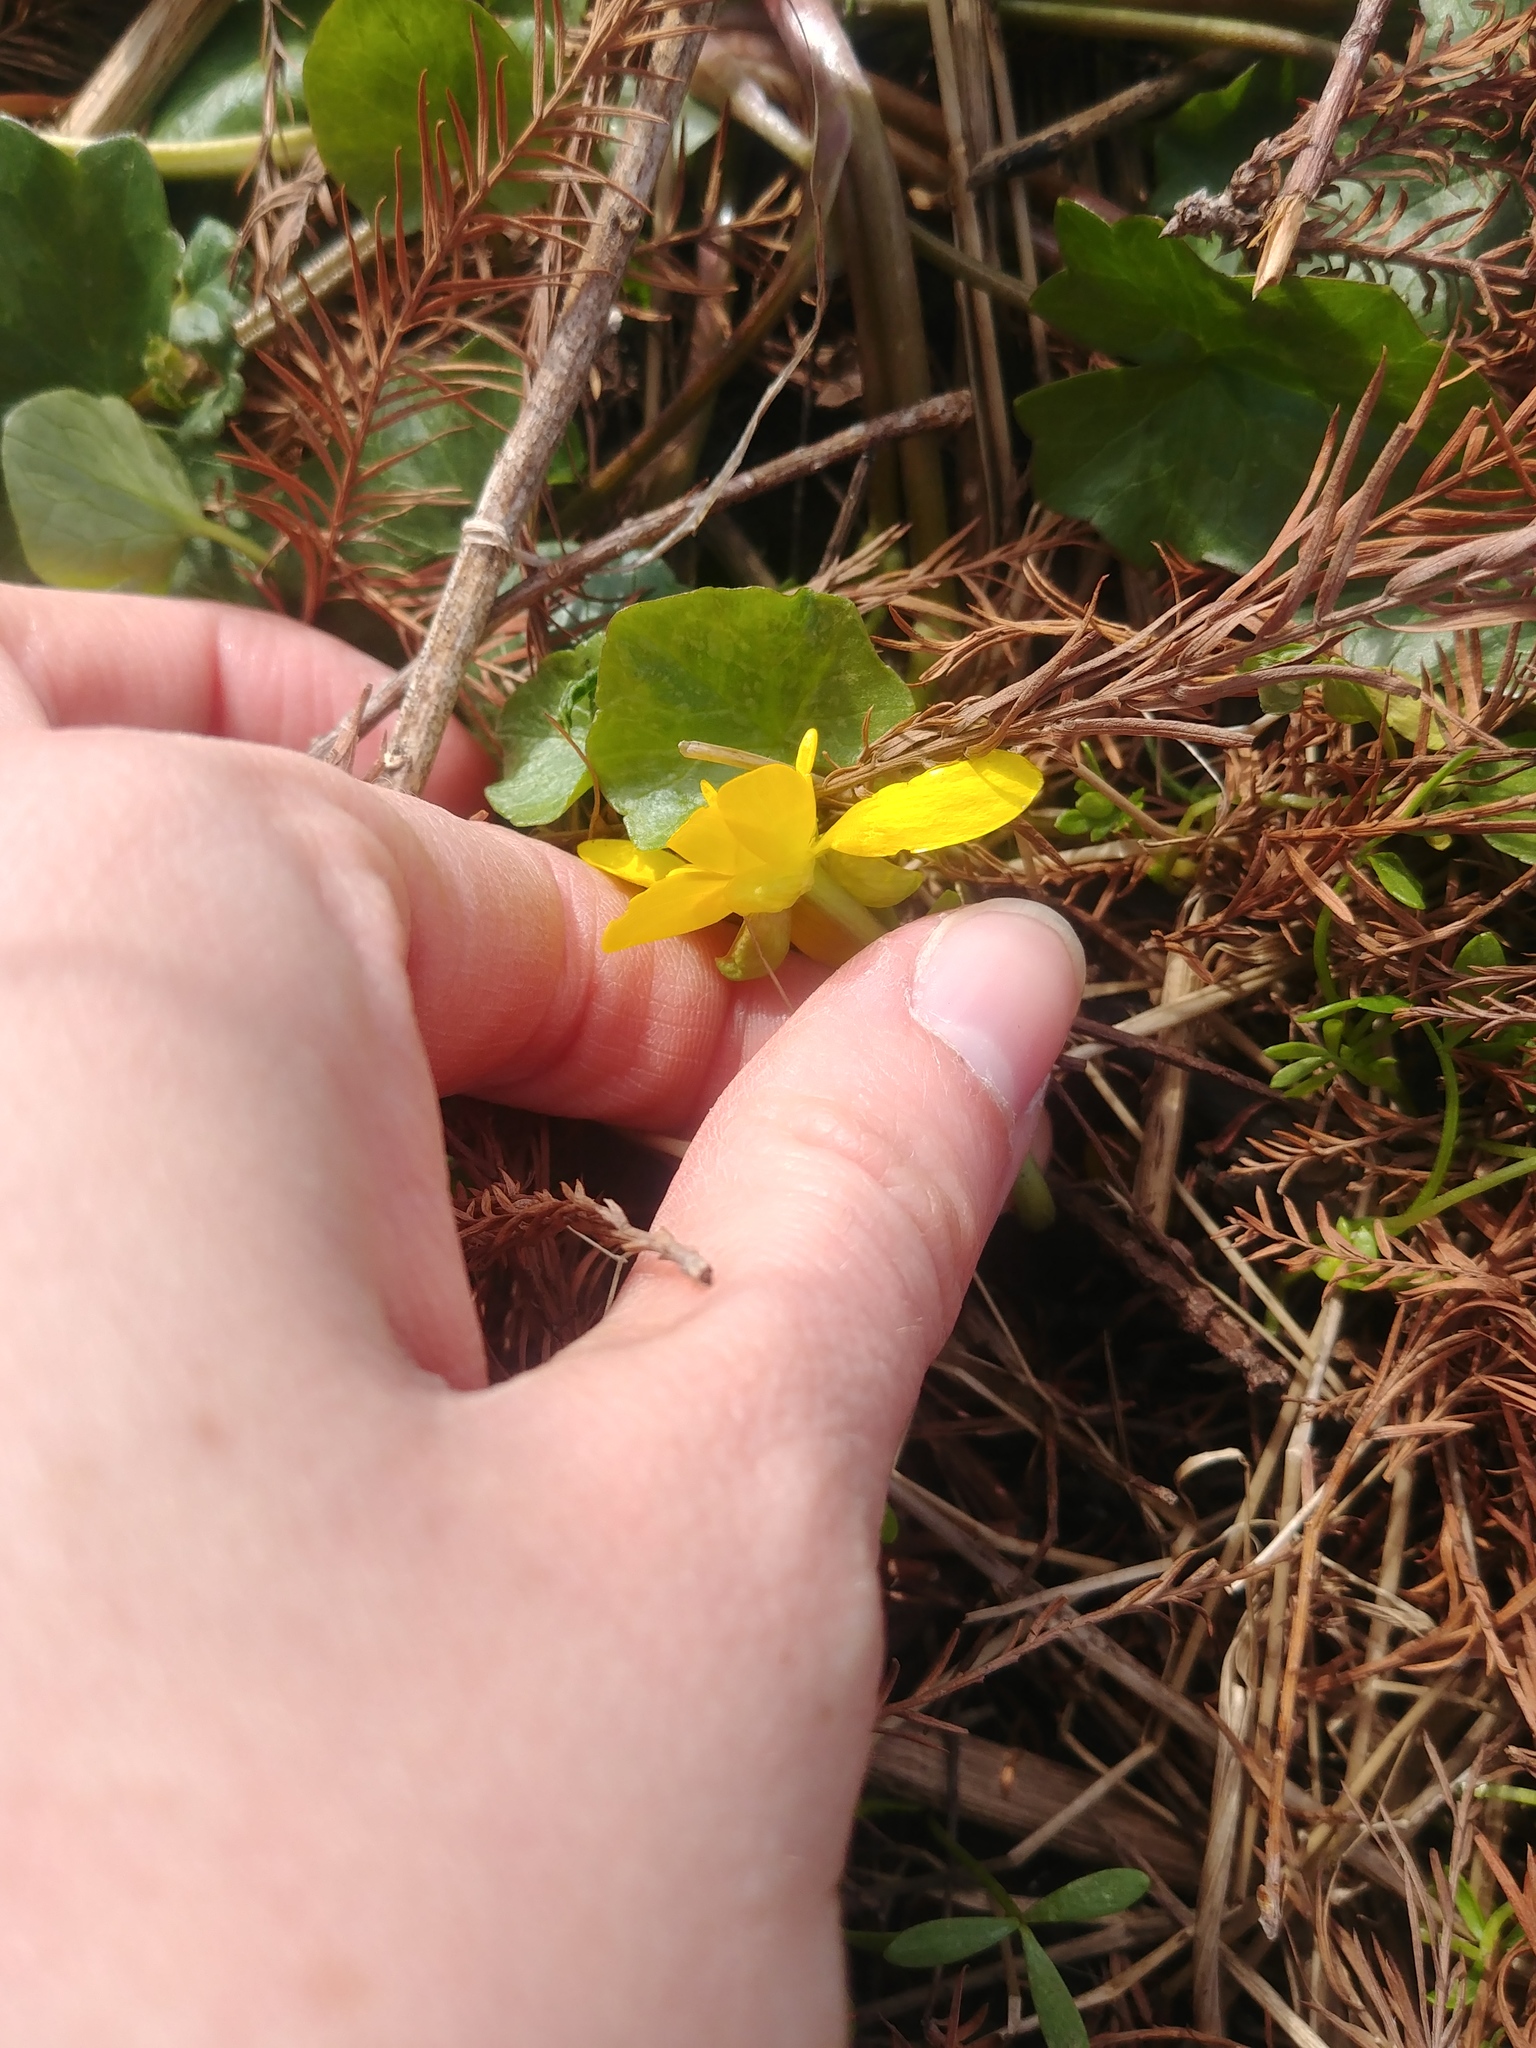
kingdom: Plantae
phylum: Tracheophyta
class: Magnoliopsida
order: Ranunculales
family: Ranunculaceae
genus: Ficaria
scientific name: Ficaria verna
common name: Lesser celandine
